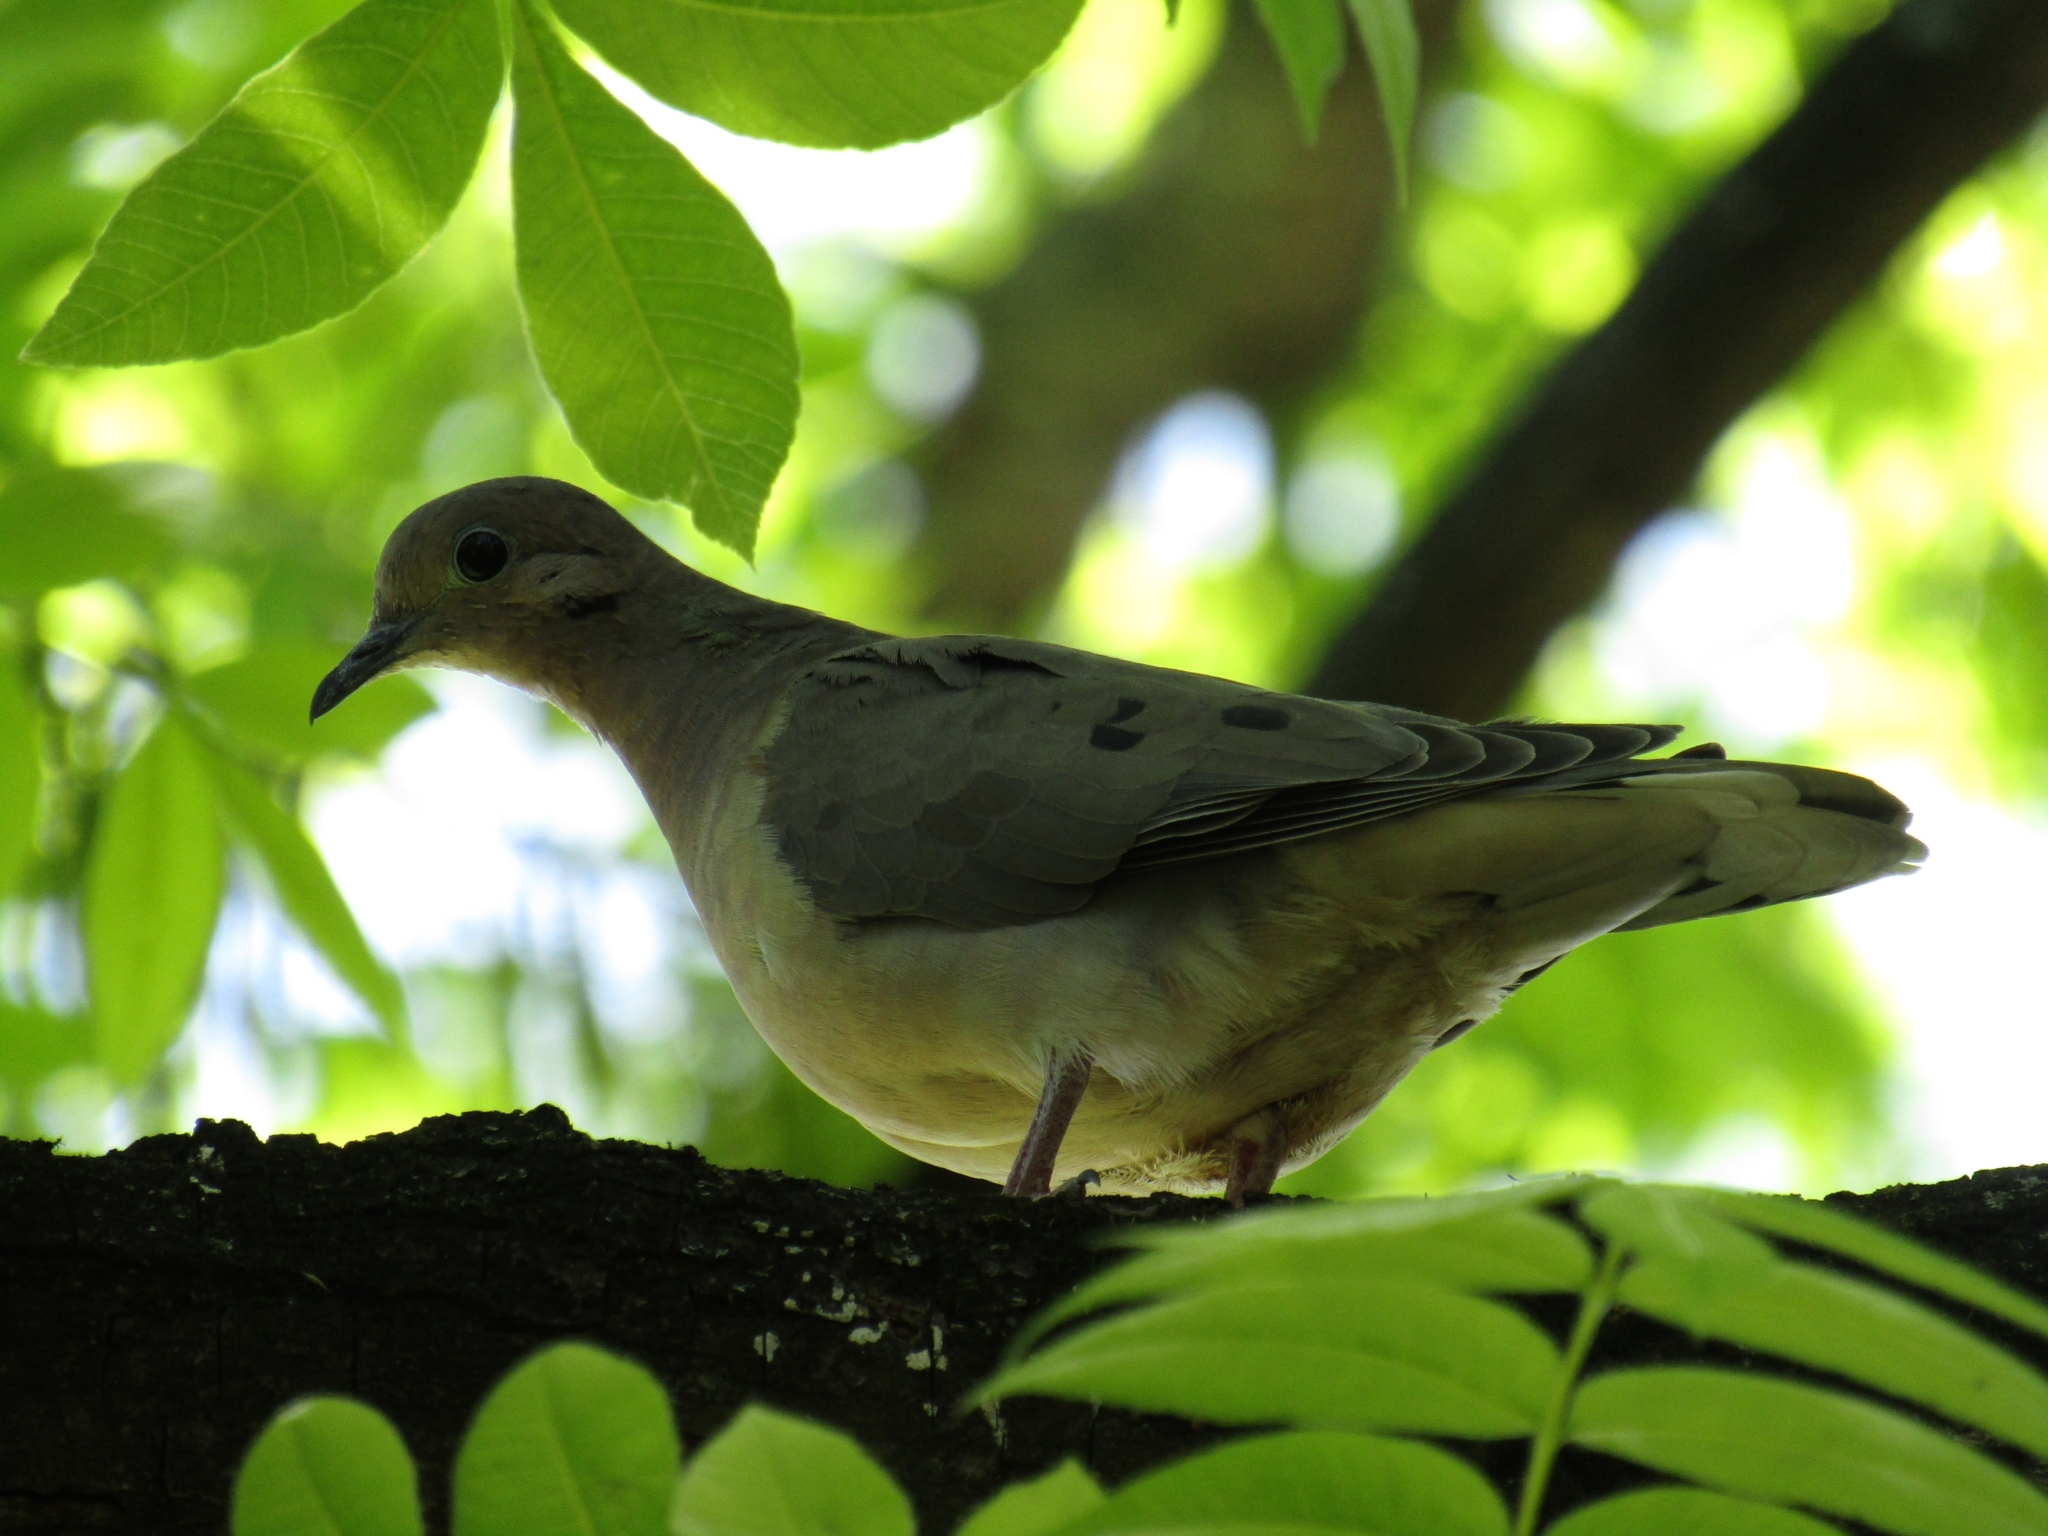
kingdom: Animalia
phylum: Chordata
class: Aves
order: Columbiformes
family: Columbidae
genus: Zenaida
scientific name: Zenaida auriculata
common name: Eared dove
